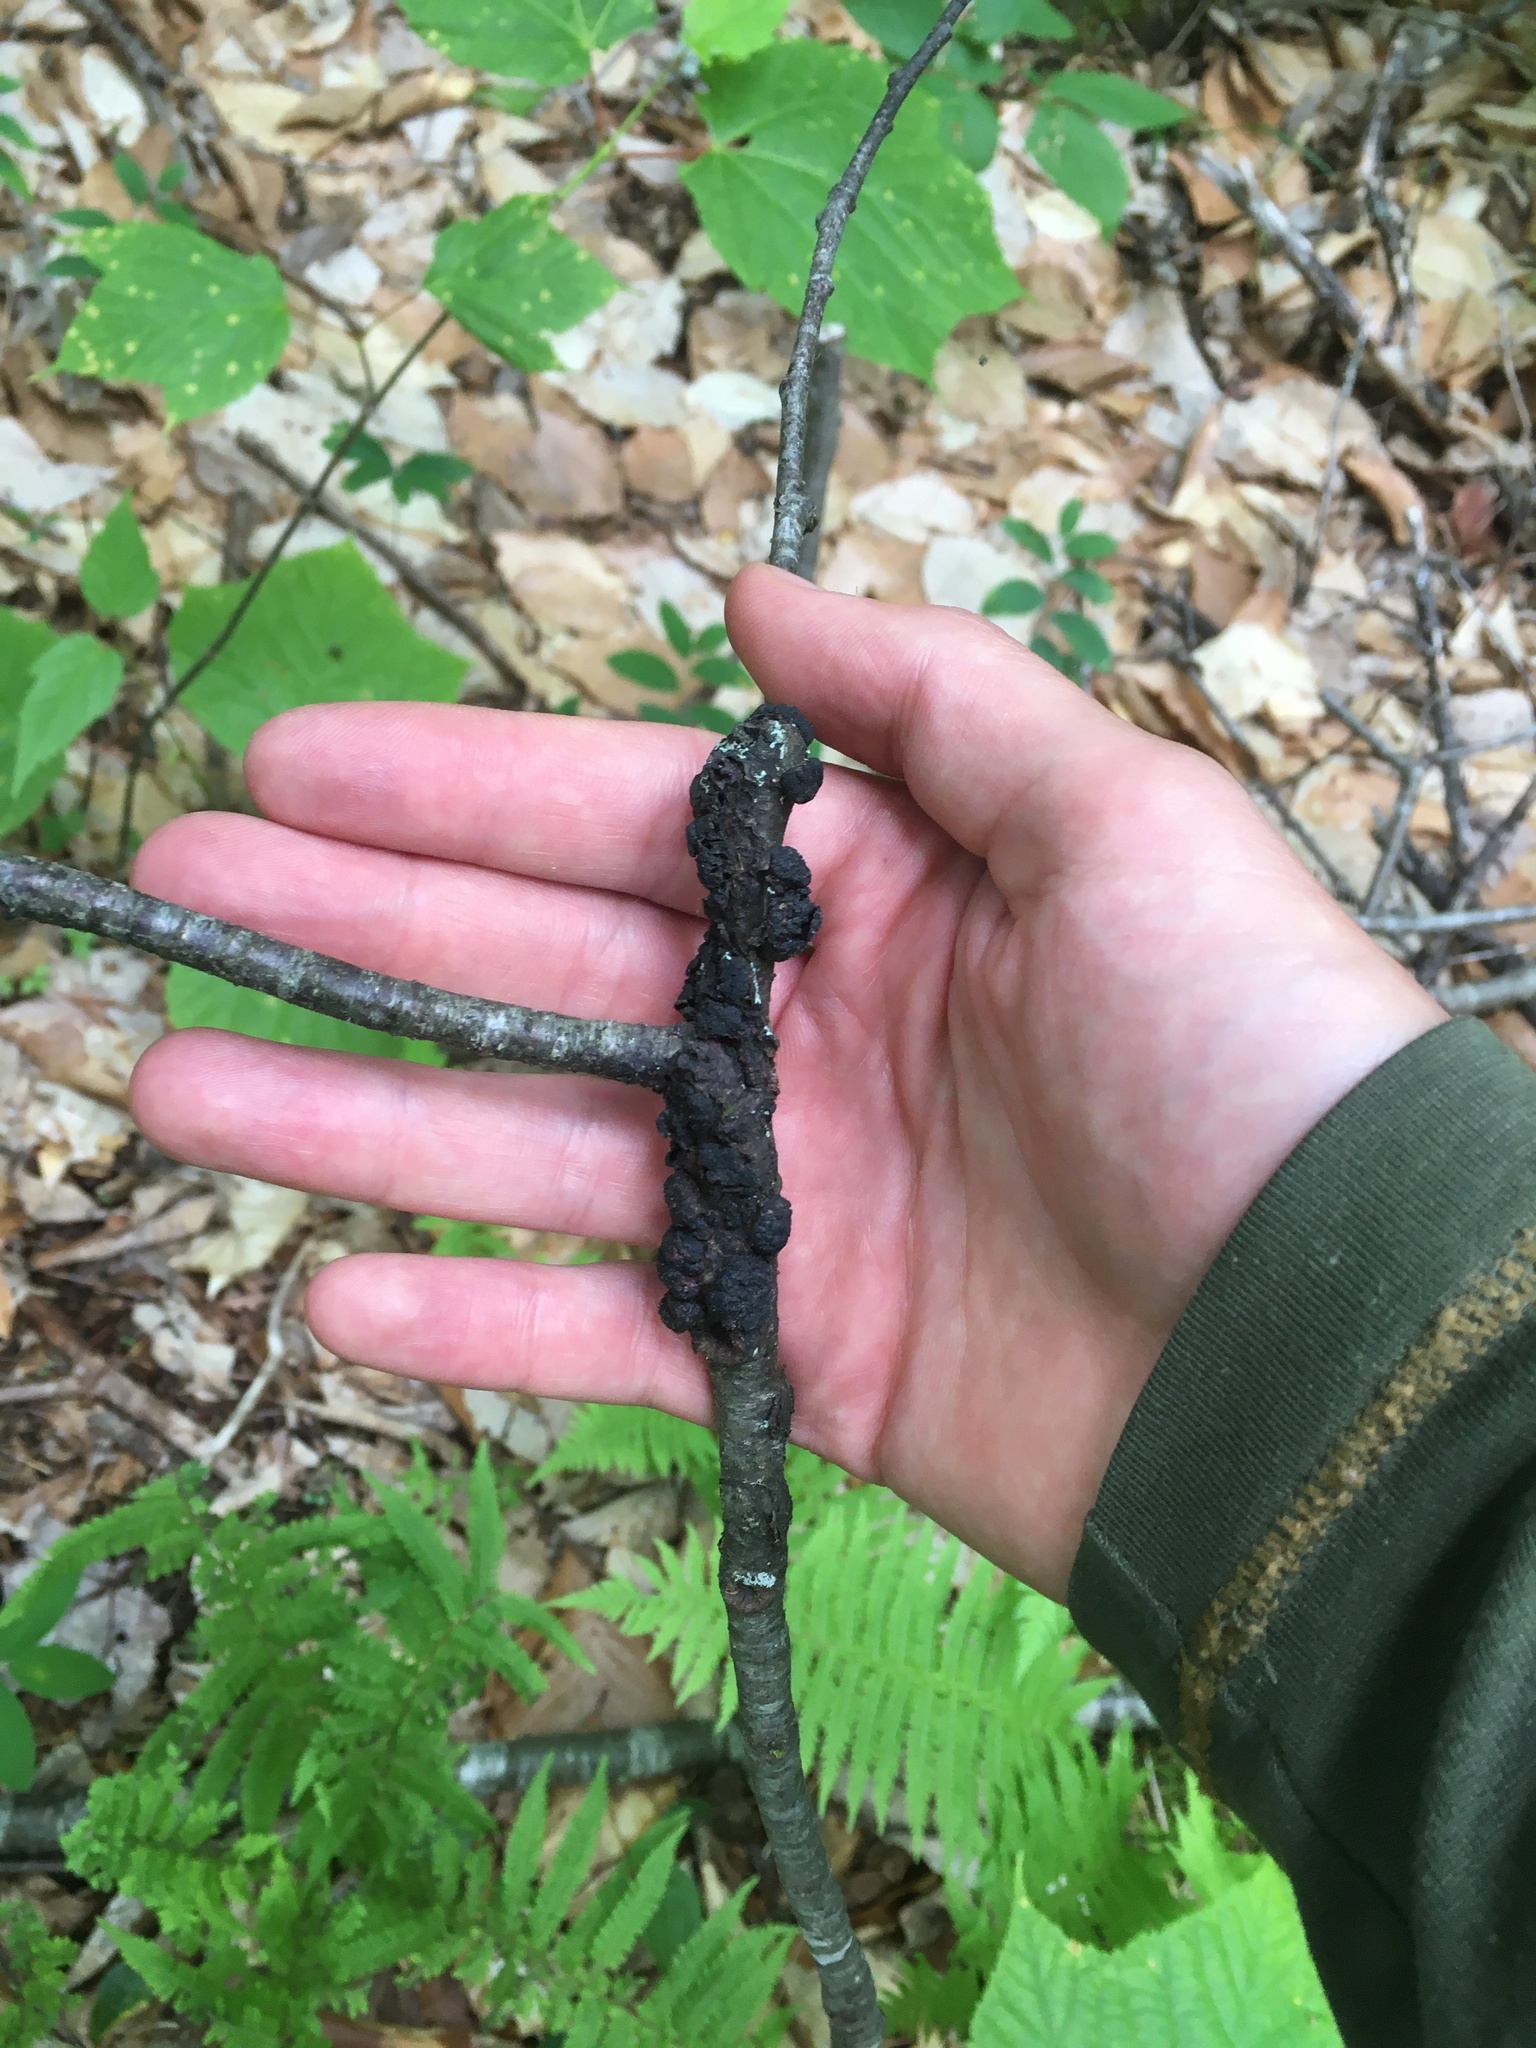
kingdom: Fungi
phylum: Ascomycota
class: Dothideomycetes
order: Venturiales
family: Venturiaceae
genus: Apiosporina
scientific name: Apiosporina morbosa
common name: Black knot
